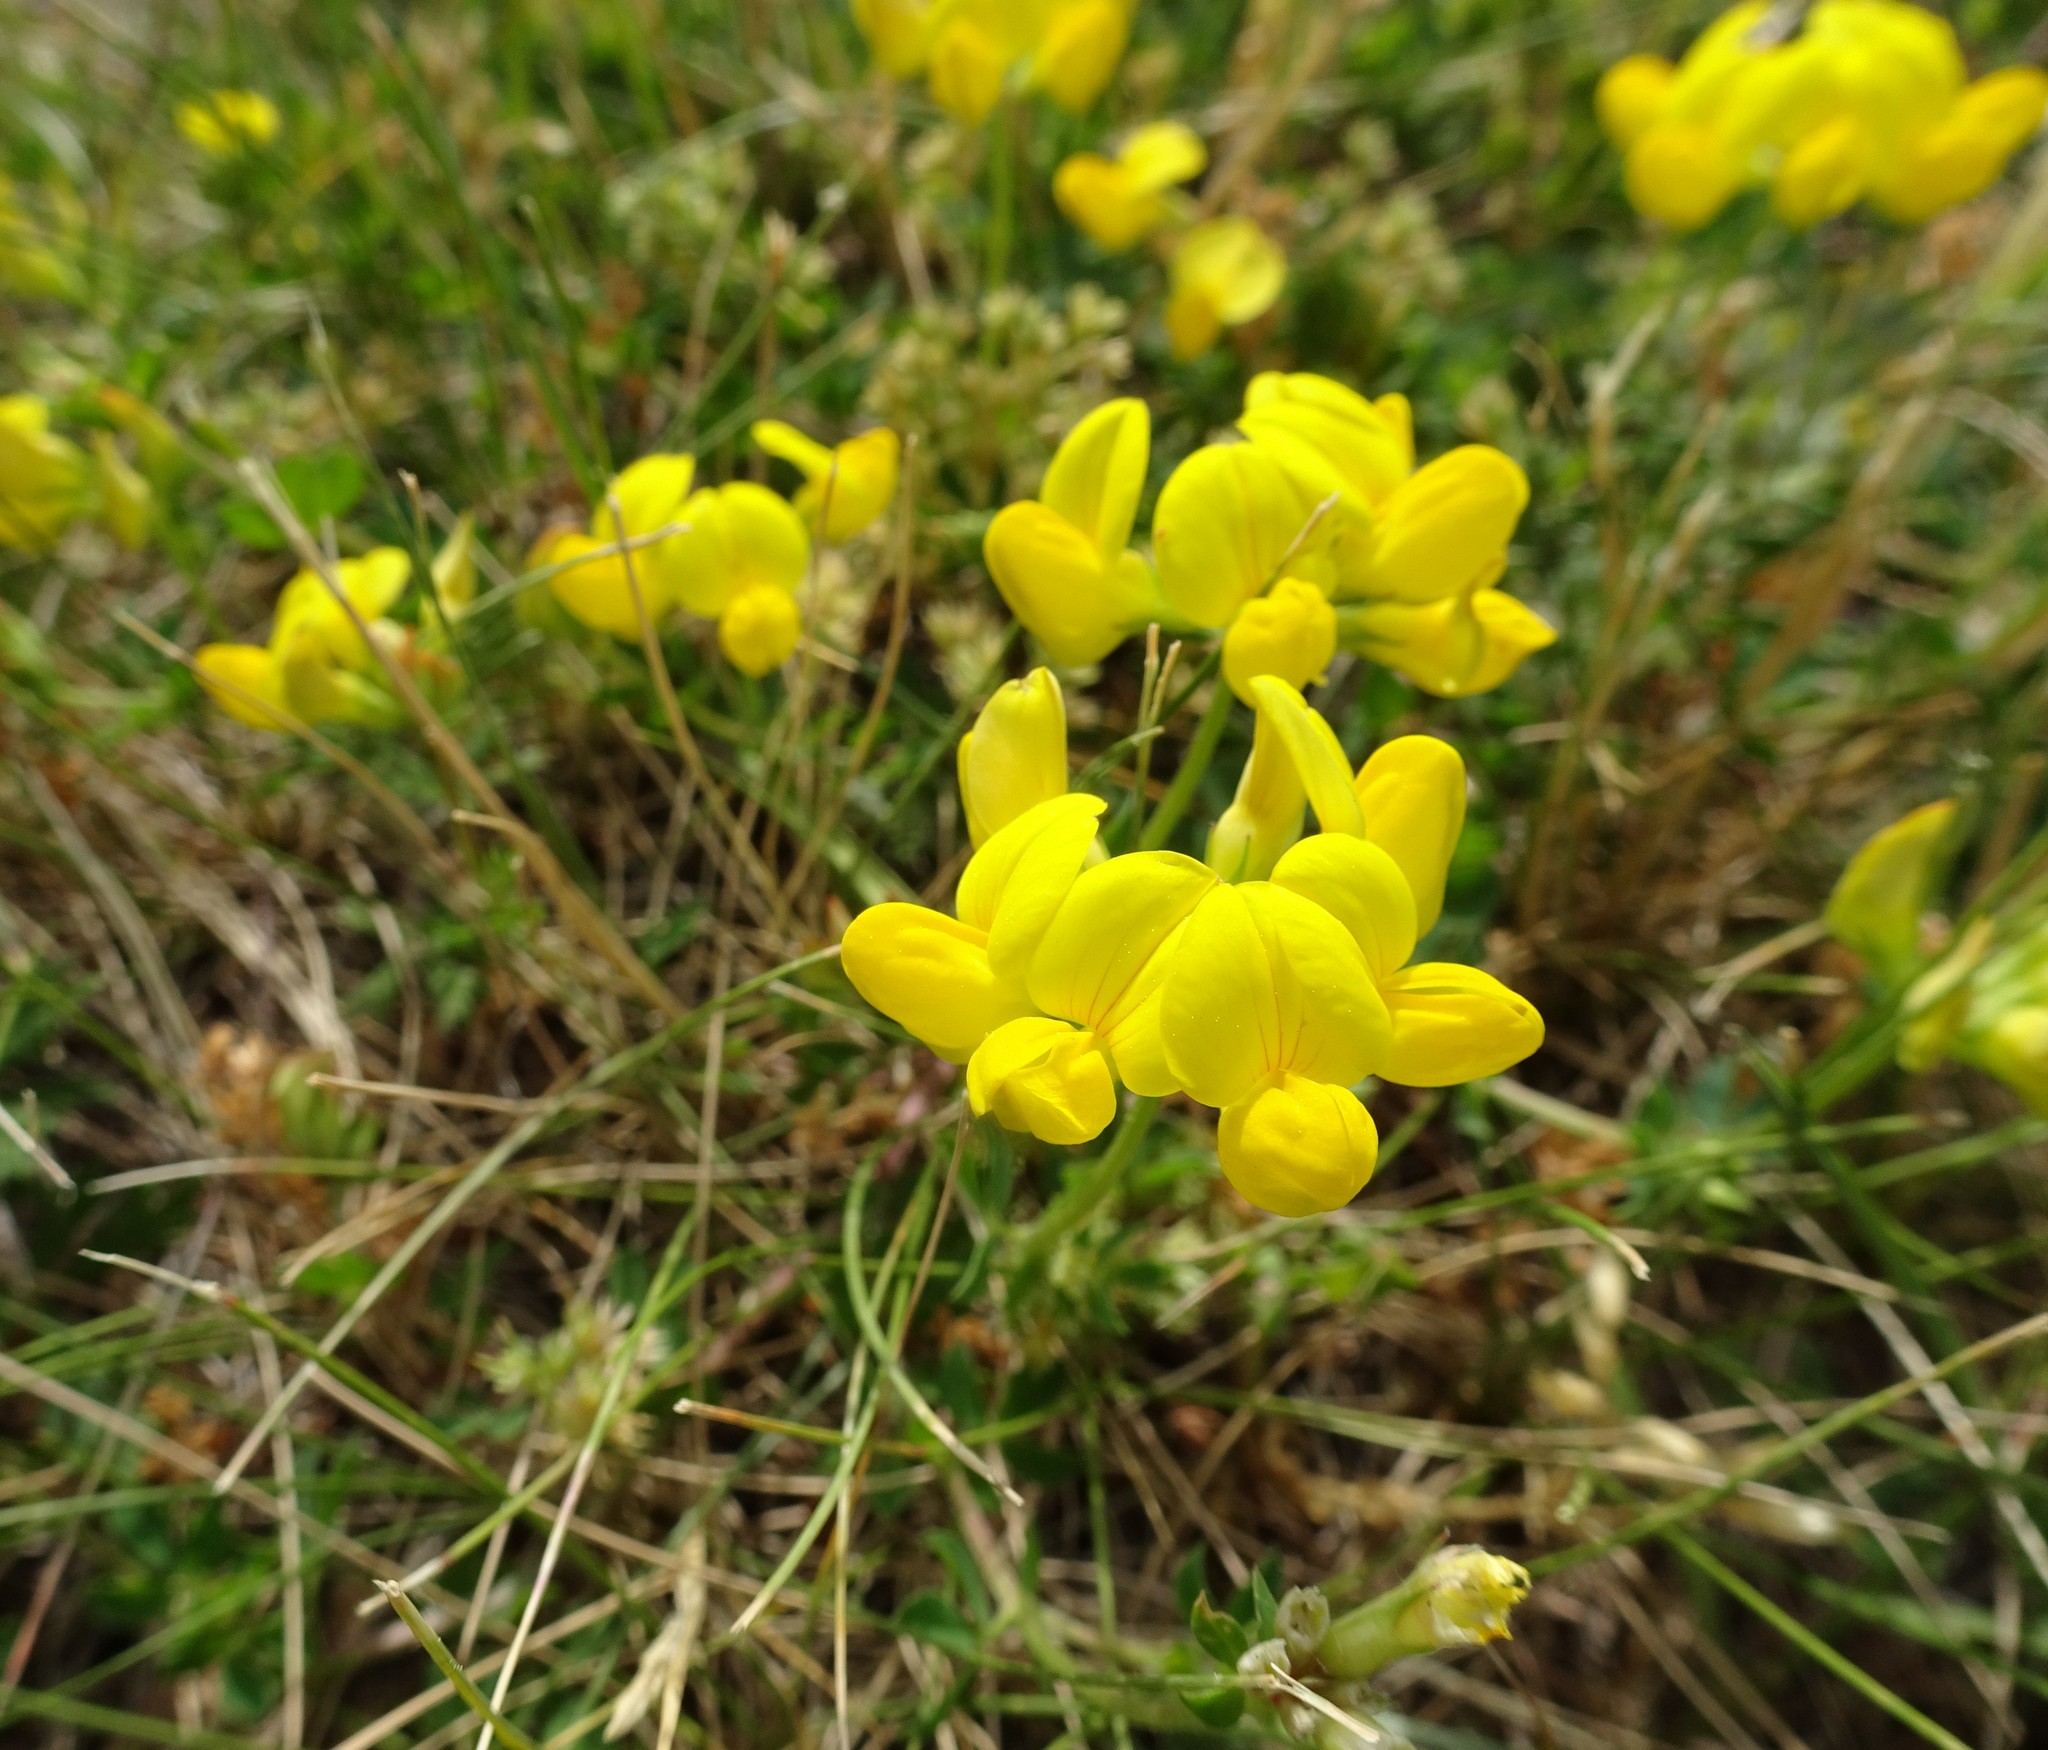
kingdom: Plantae
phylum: Tracheophyta
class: Magnoliopsida
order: Fabales
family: Fabaceae
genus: Lotus
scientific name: Lotus corniculatus
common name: Common bird's-foot-trefoil
